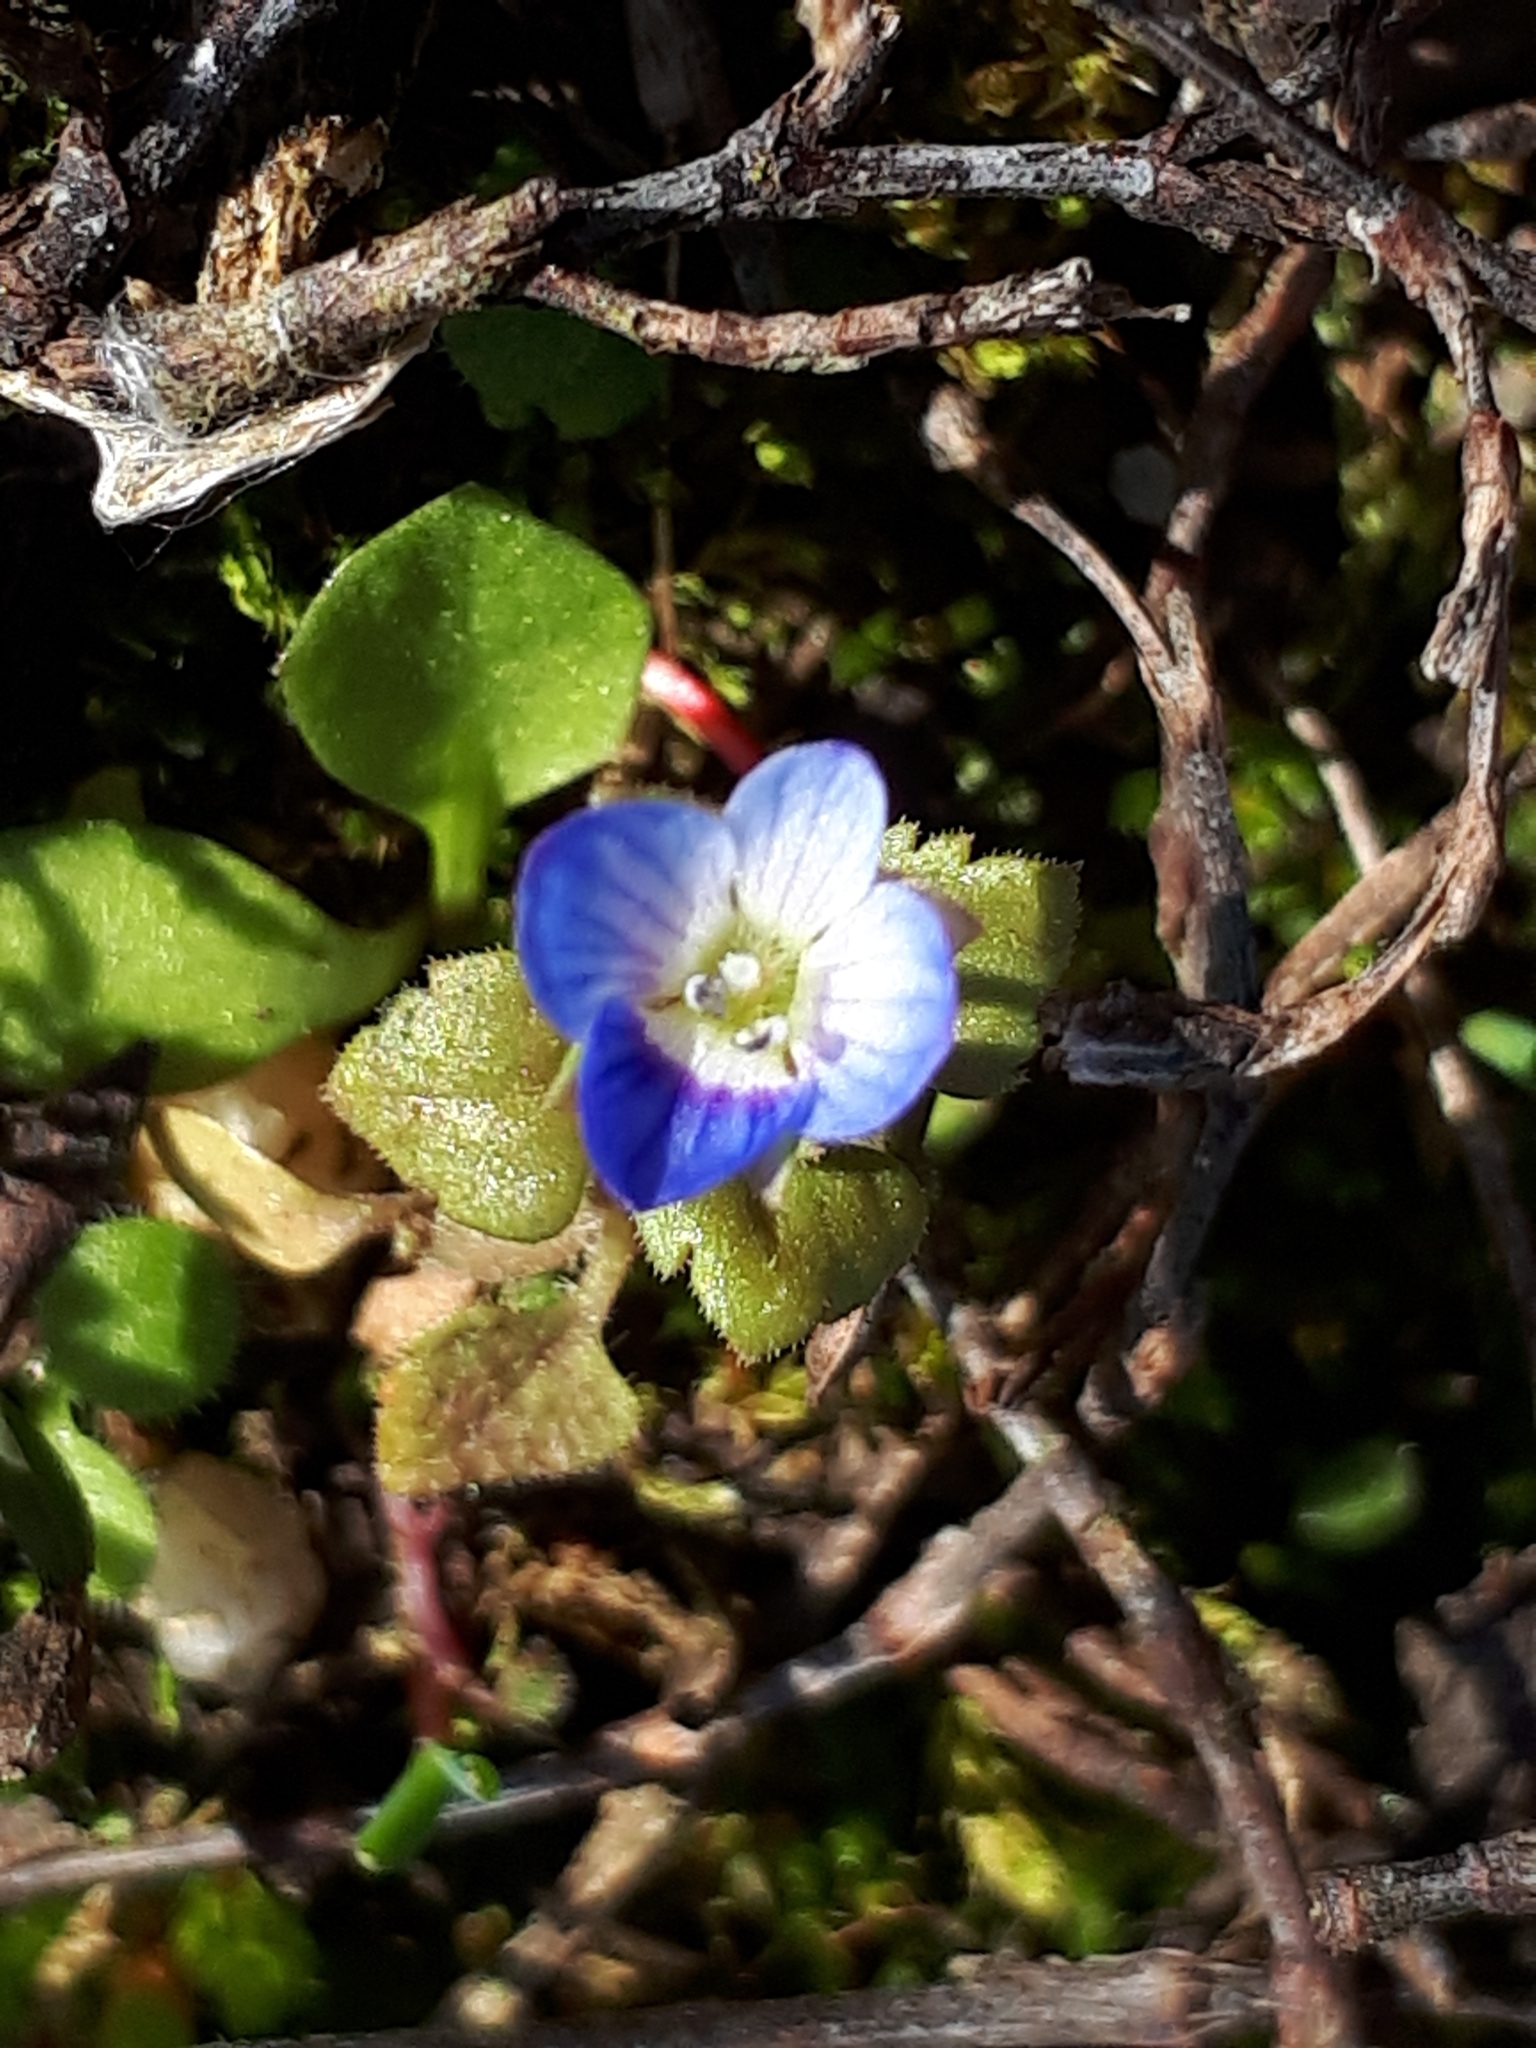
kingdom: Plantae
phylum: Tracheophyta
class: Magnoliopsida
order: Lamiales
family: Plantaginaceae
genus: Veronica
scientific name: Veronica persica
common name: Common field-speedwell
